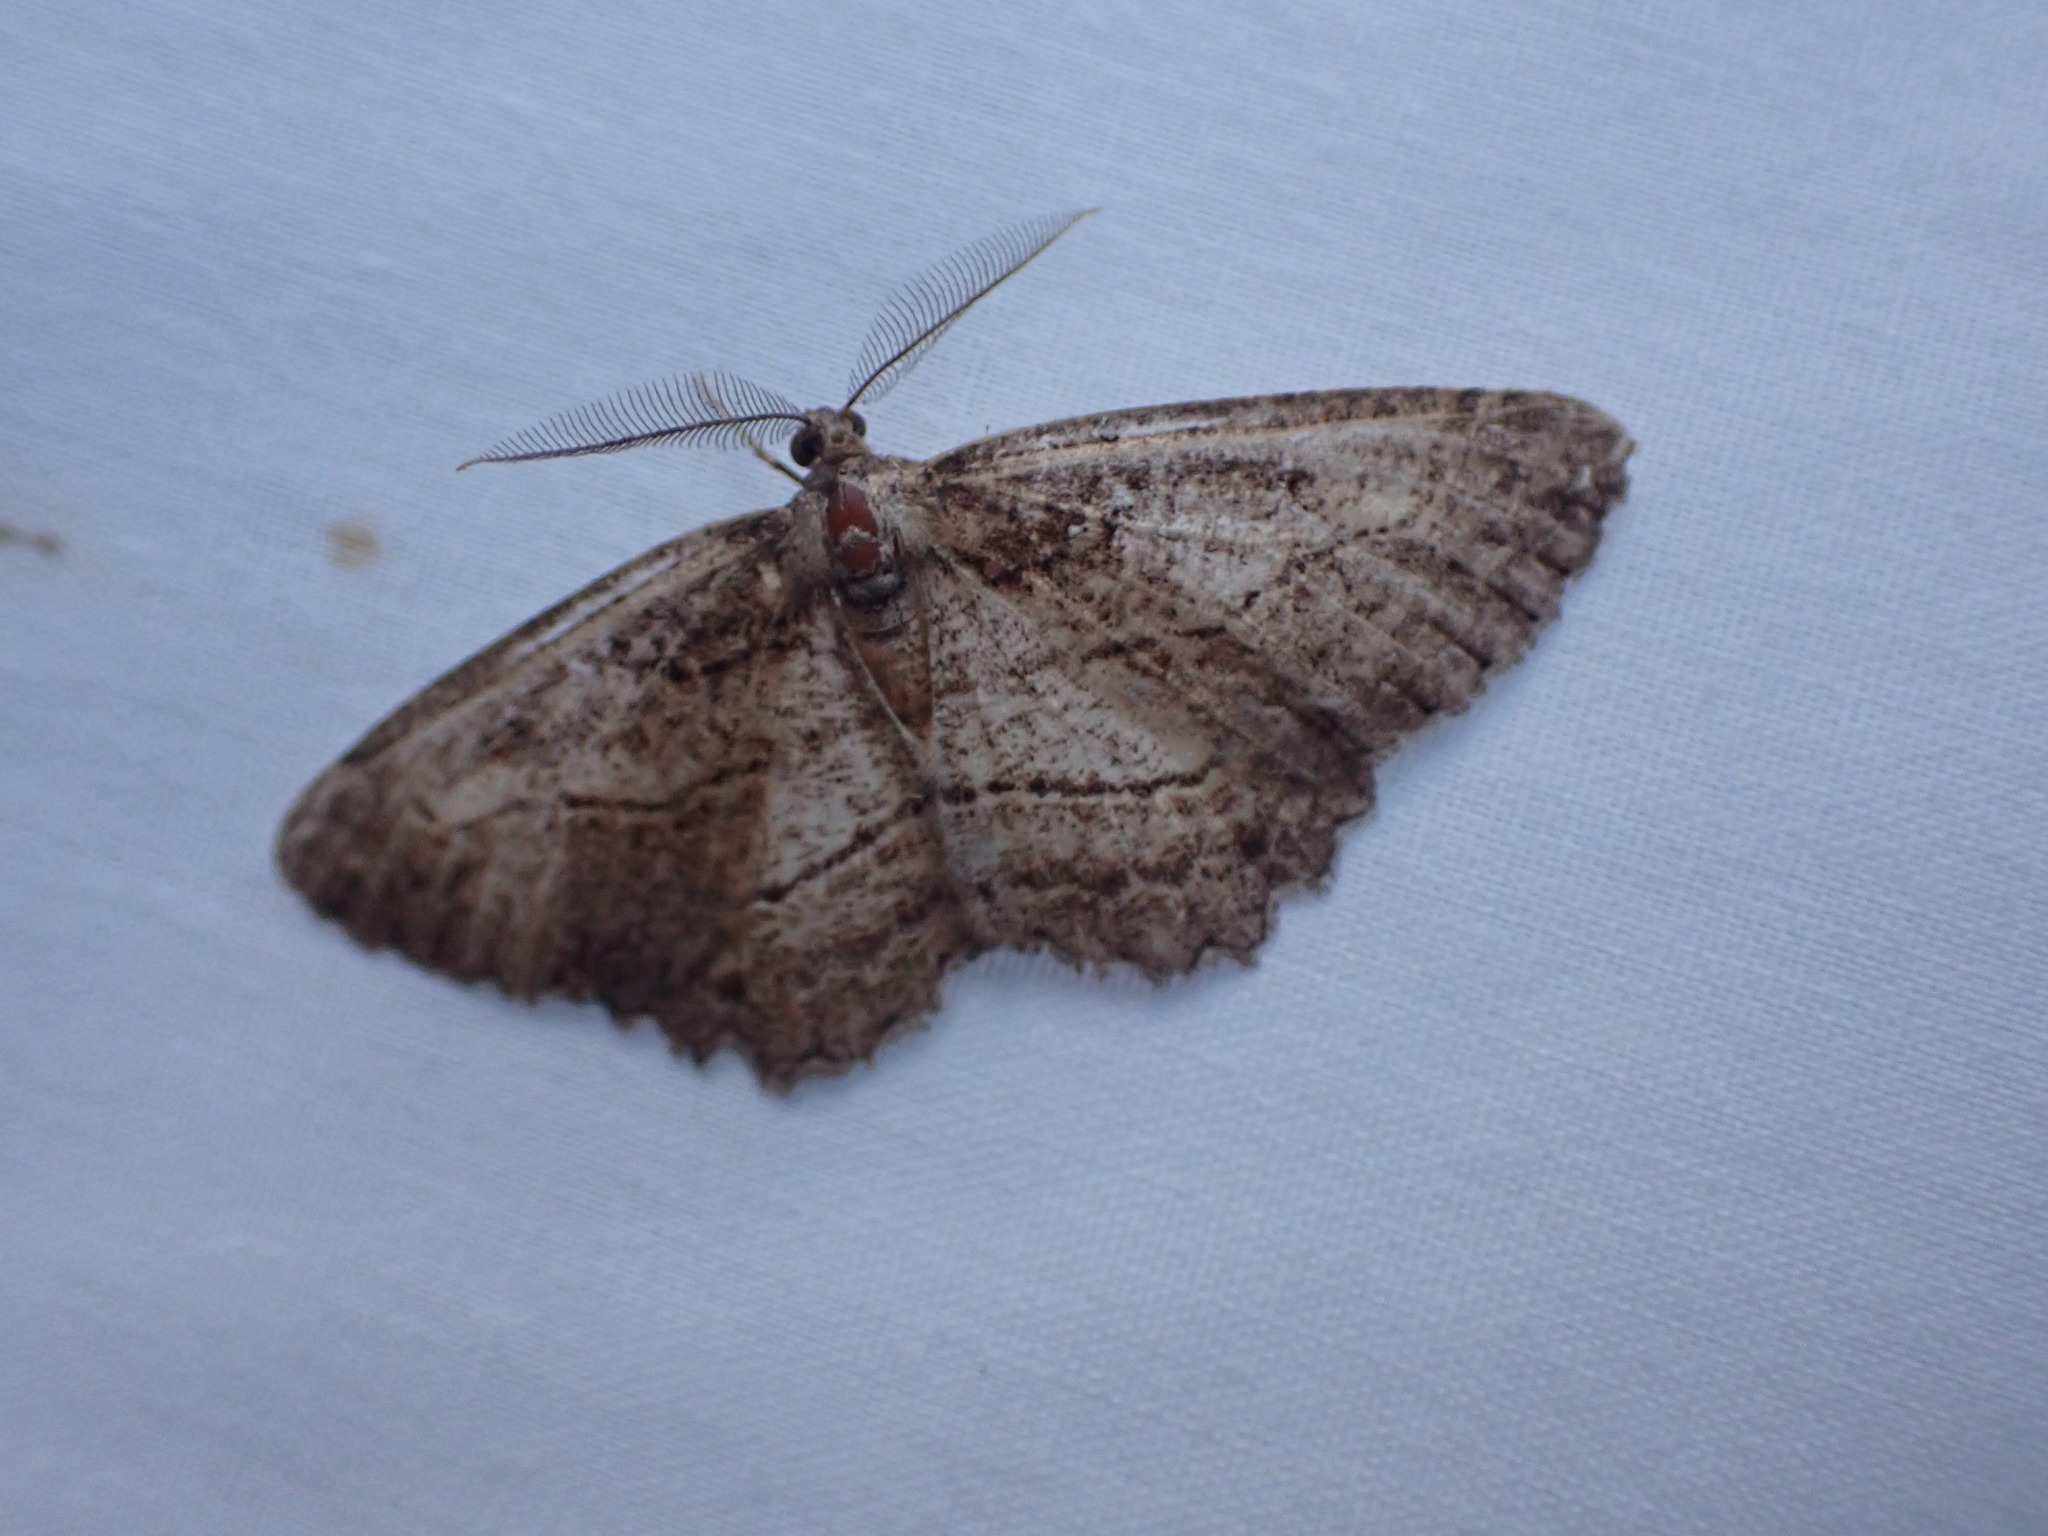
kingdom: Animalia
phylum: Arthropoda
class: Insecta
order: Lepidoptera
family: Geometridae
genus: Neoalcis
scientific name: Neoalcis californiaria
